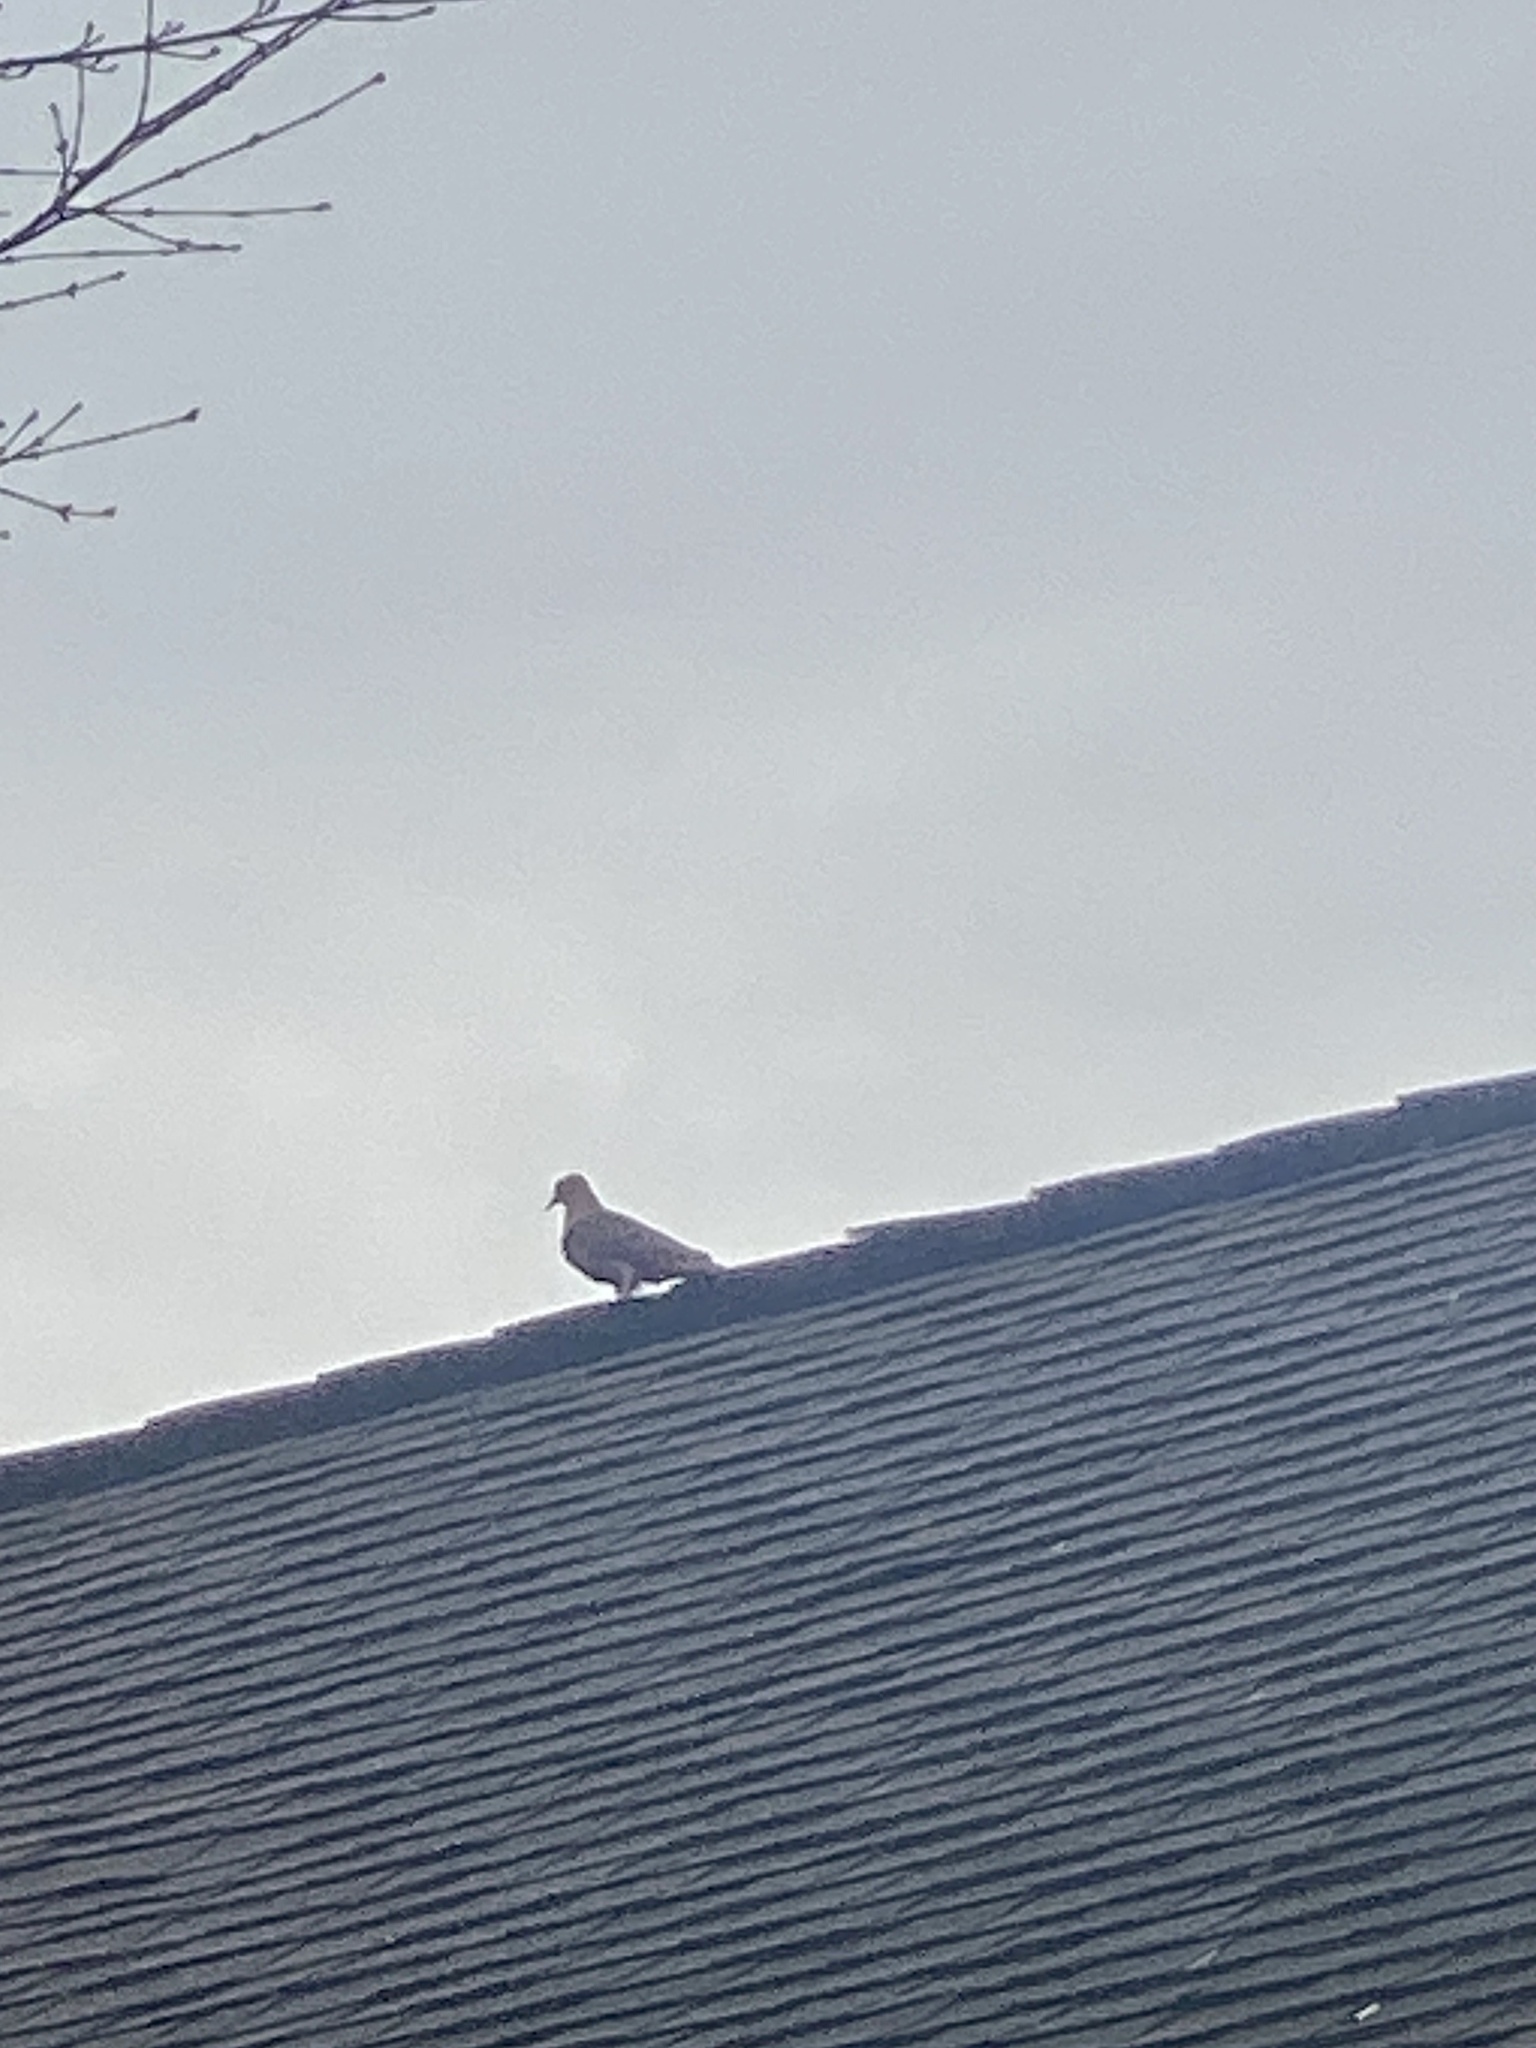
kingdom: Animalia
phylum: Chordata
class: Aves
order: Columbiformes
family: Columbidae
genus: Zenaida
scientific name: Zenaida macroura
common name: Mourning dove
